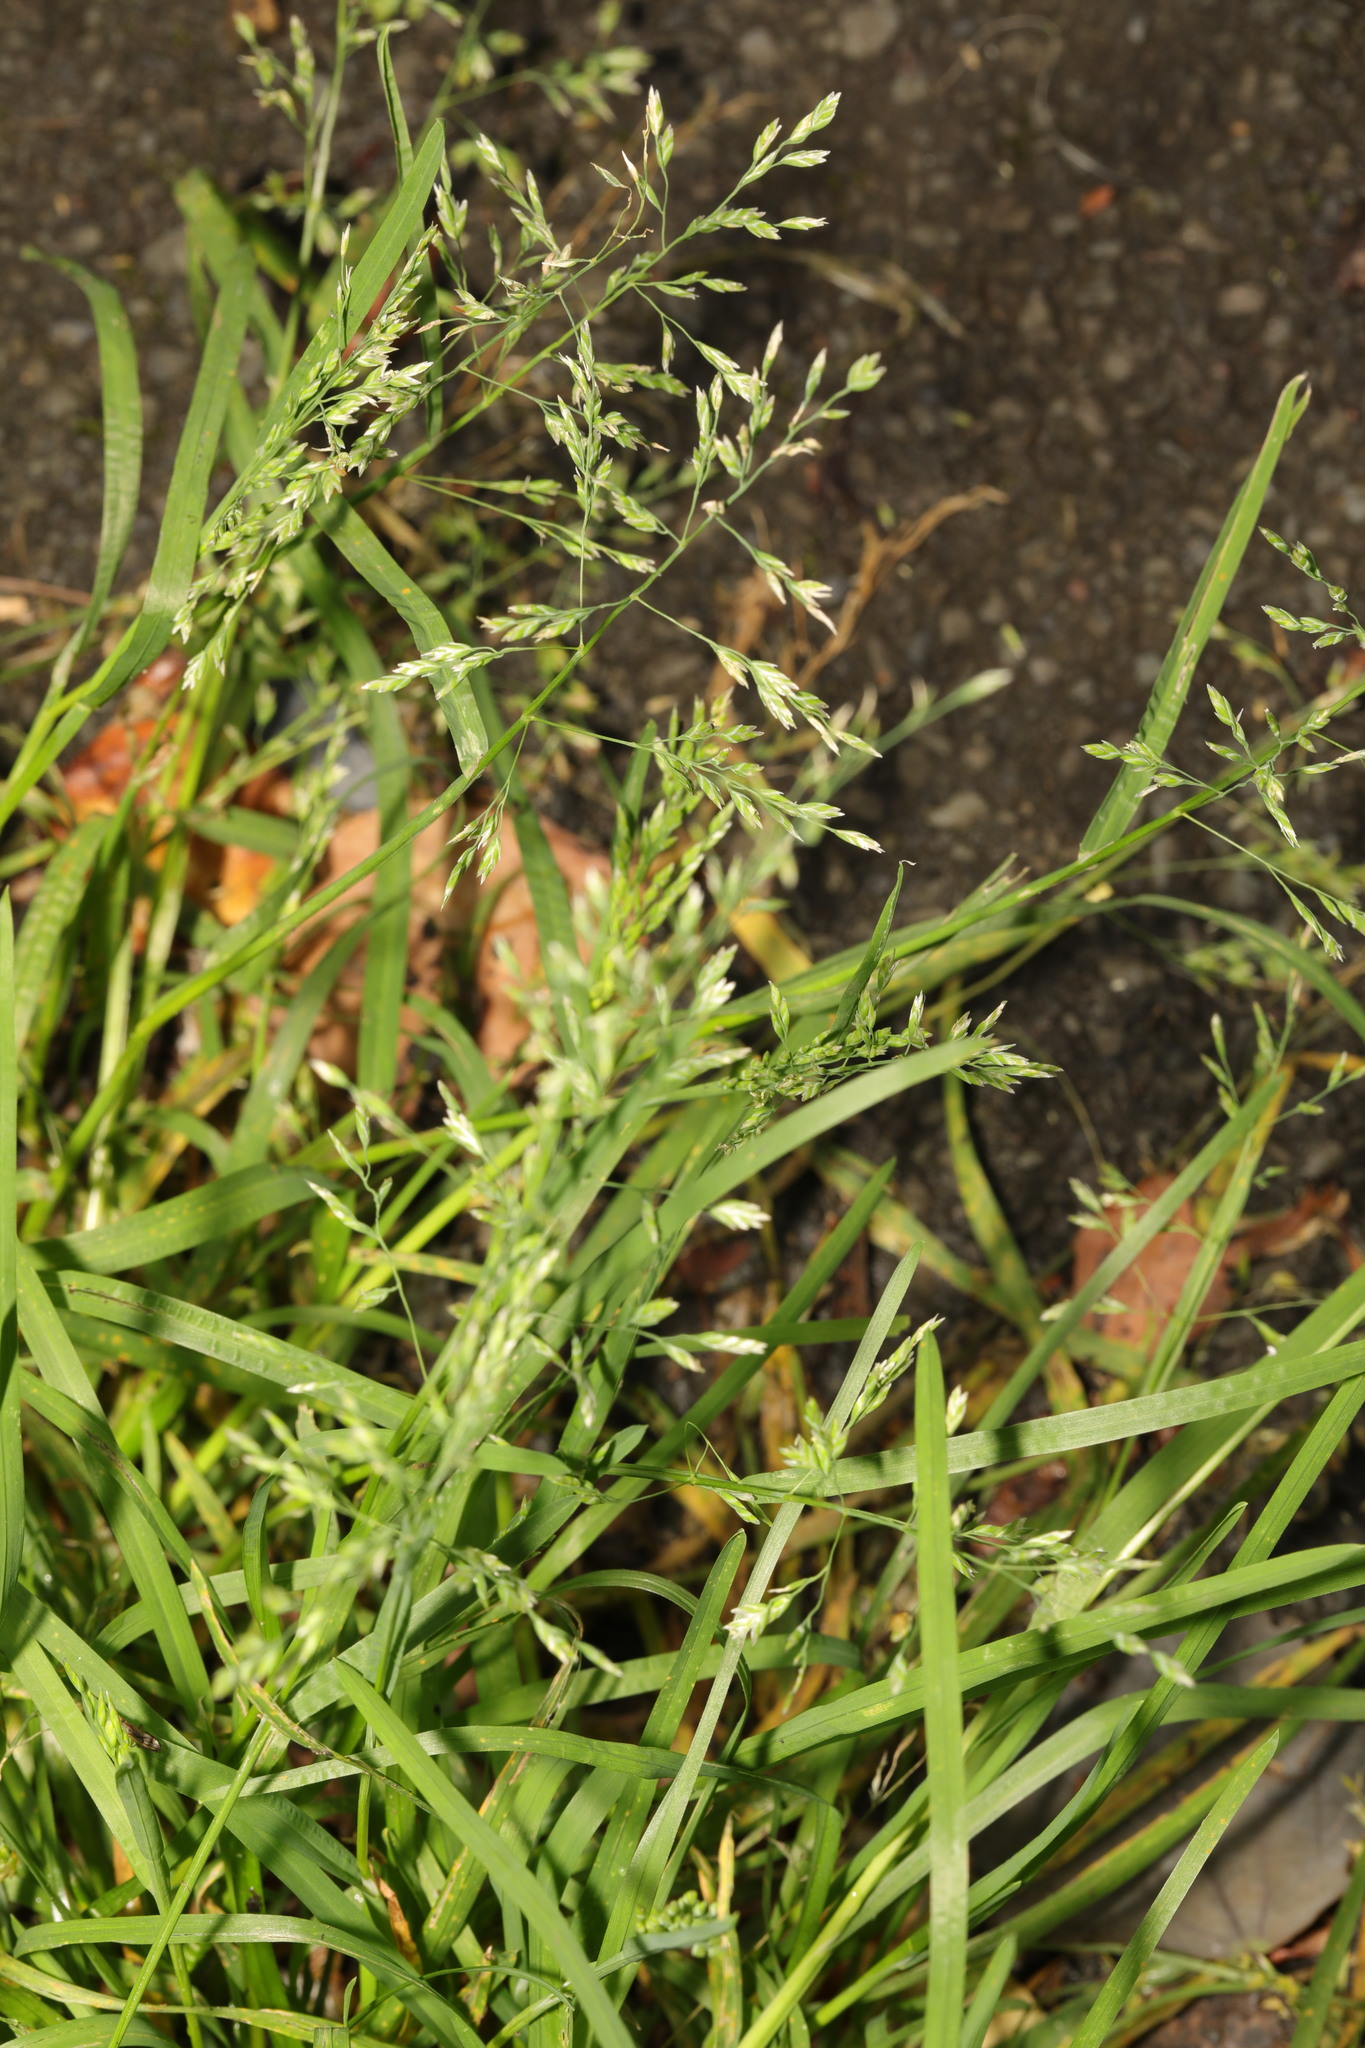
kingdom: Plantae
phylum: Tracheophyta
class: Liliopsida
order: Poales
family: Poaceae
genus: Poa
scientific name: Poa annua
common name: Annual bluegrass
